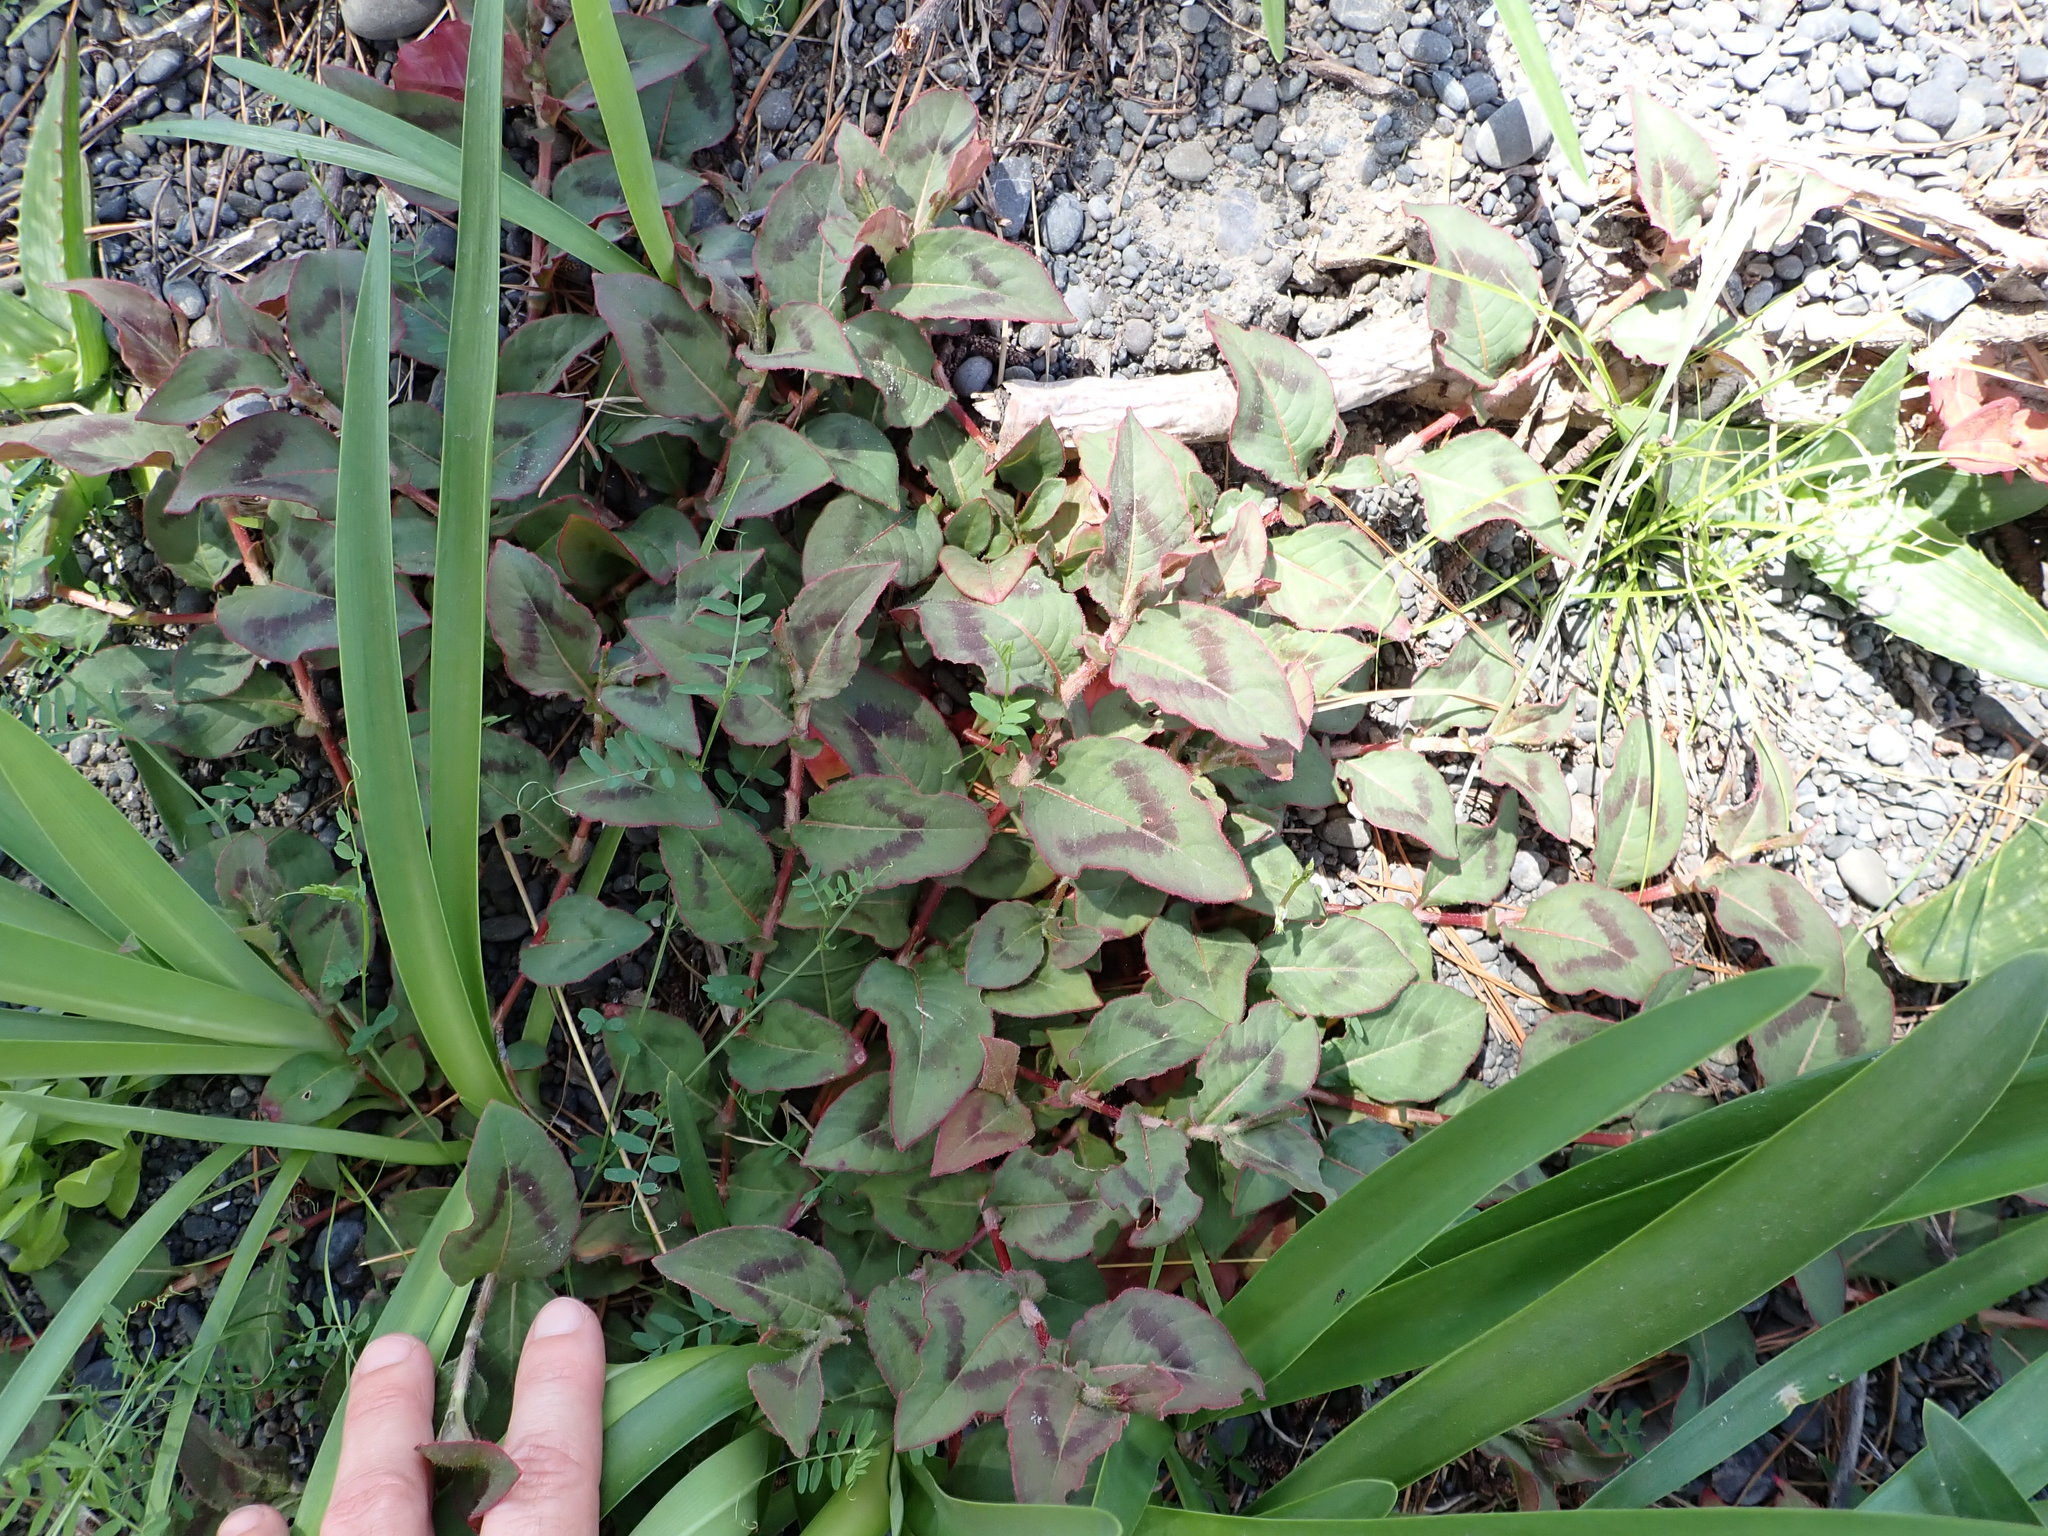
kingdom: Plantae
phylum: Tracheophyta
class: Magnoliopsida
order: Caryophyllales
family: Polygonaceae
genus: Persicaria
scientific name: Persicaria capitata
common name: Pinkhead smartweed
